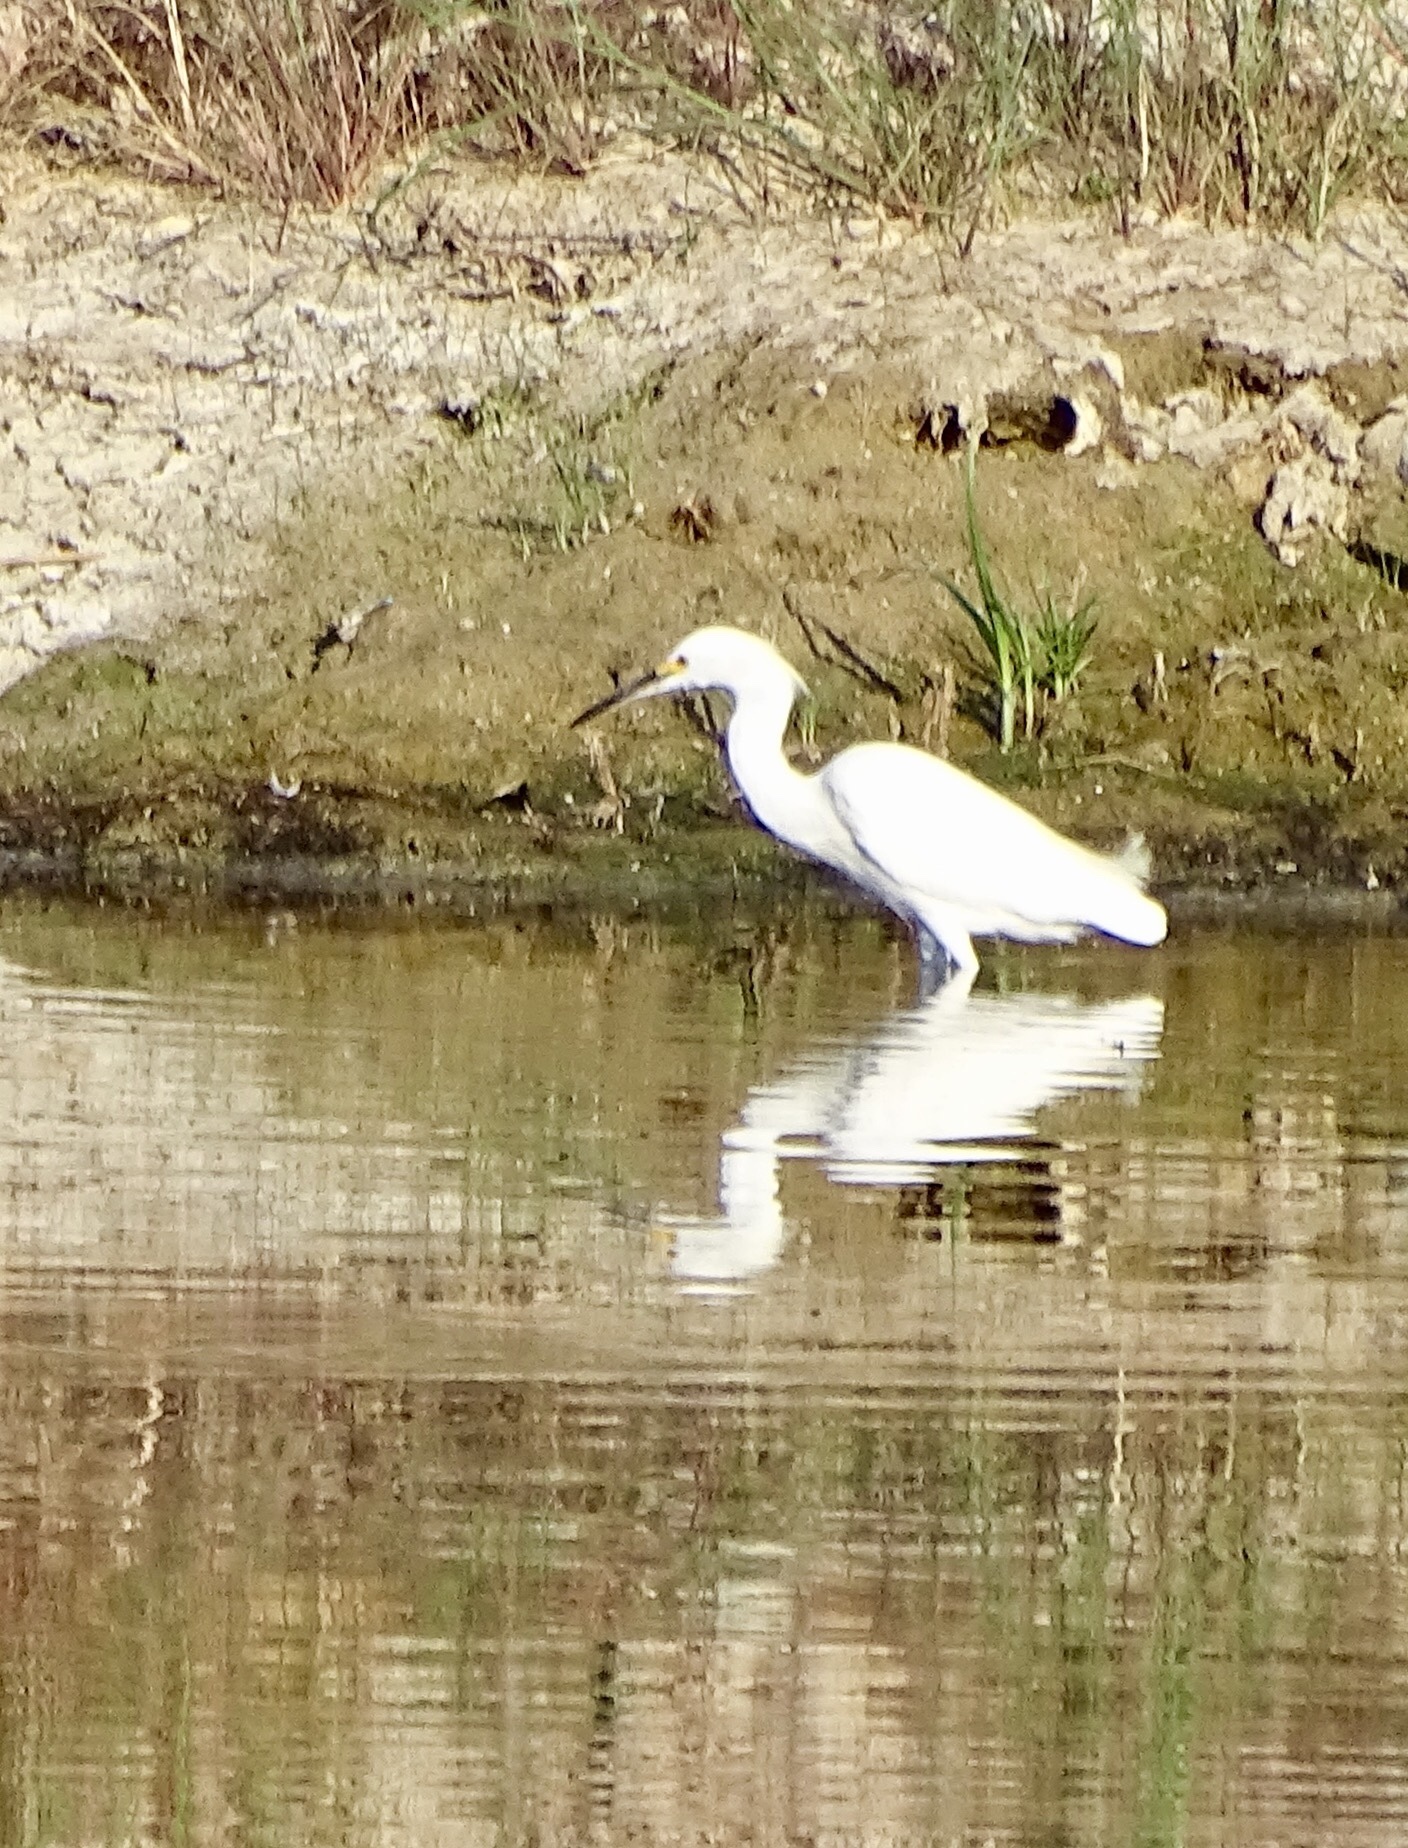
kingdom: Animalia
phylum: Chordata
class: Aves
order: Pelecaniformes
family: Ardeidae
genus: Egretta
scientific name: Egretta thula
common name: Snowy egret
